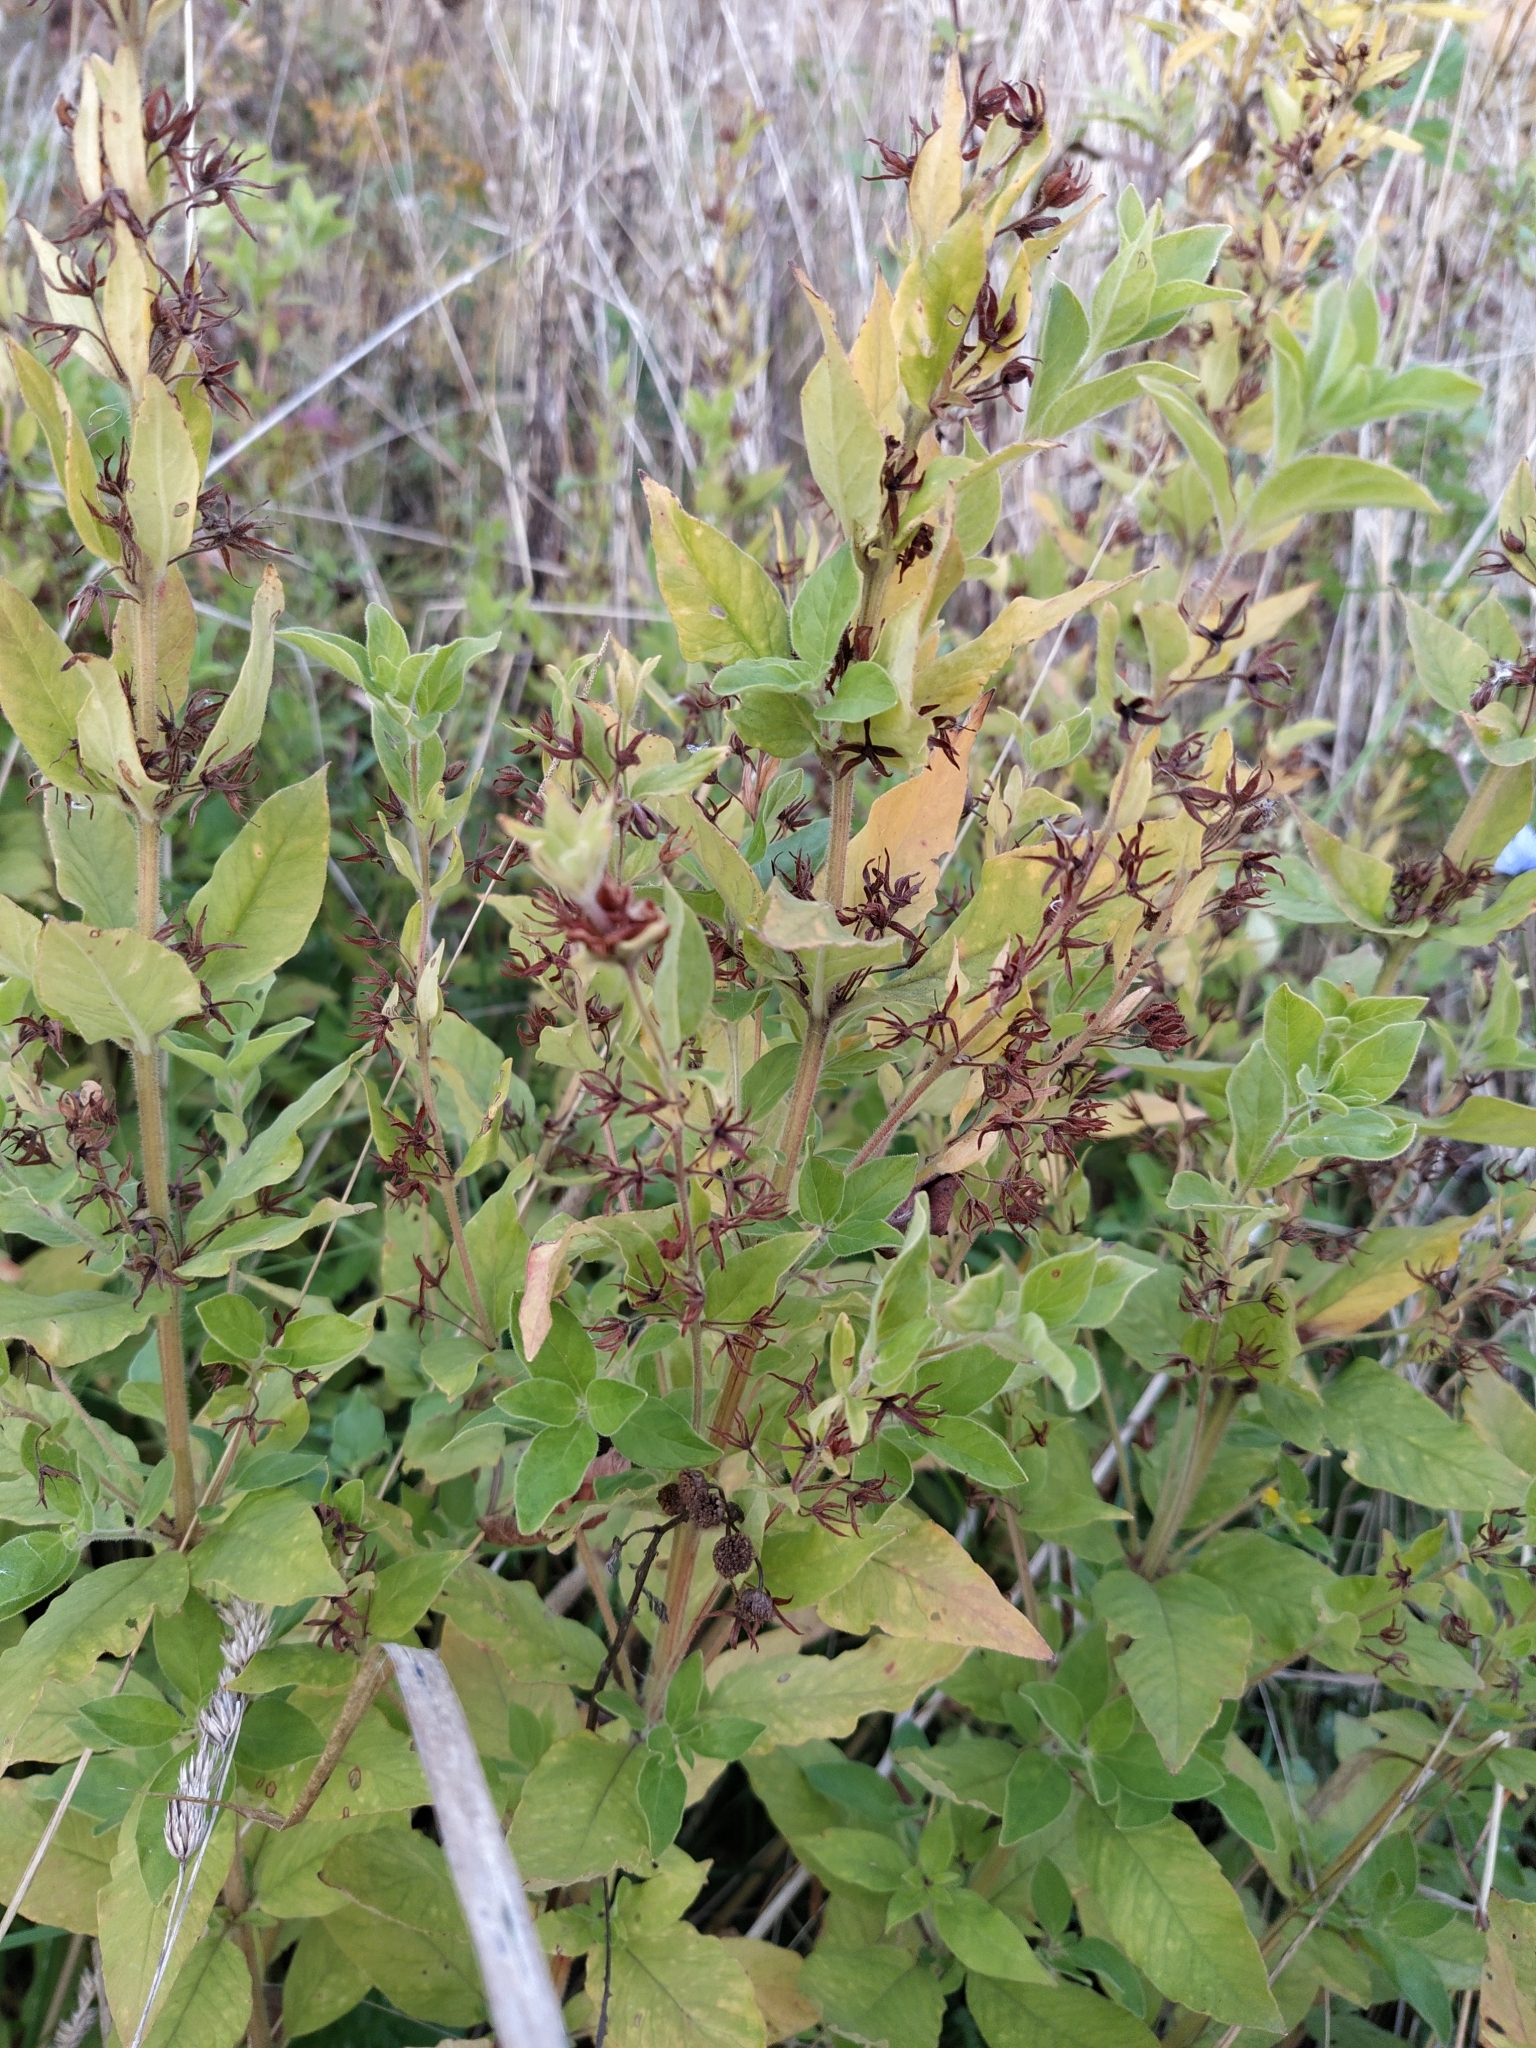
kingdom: Plantae
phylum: Tracheophyta
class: Magnoliopsida
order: Ericales
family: Primulaceae
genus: Lysimachia
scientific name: Lysimachia punctata
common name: Dotted loosestrife
